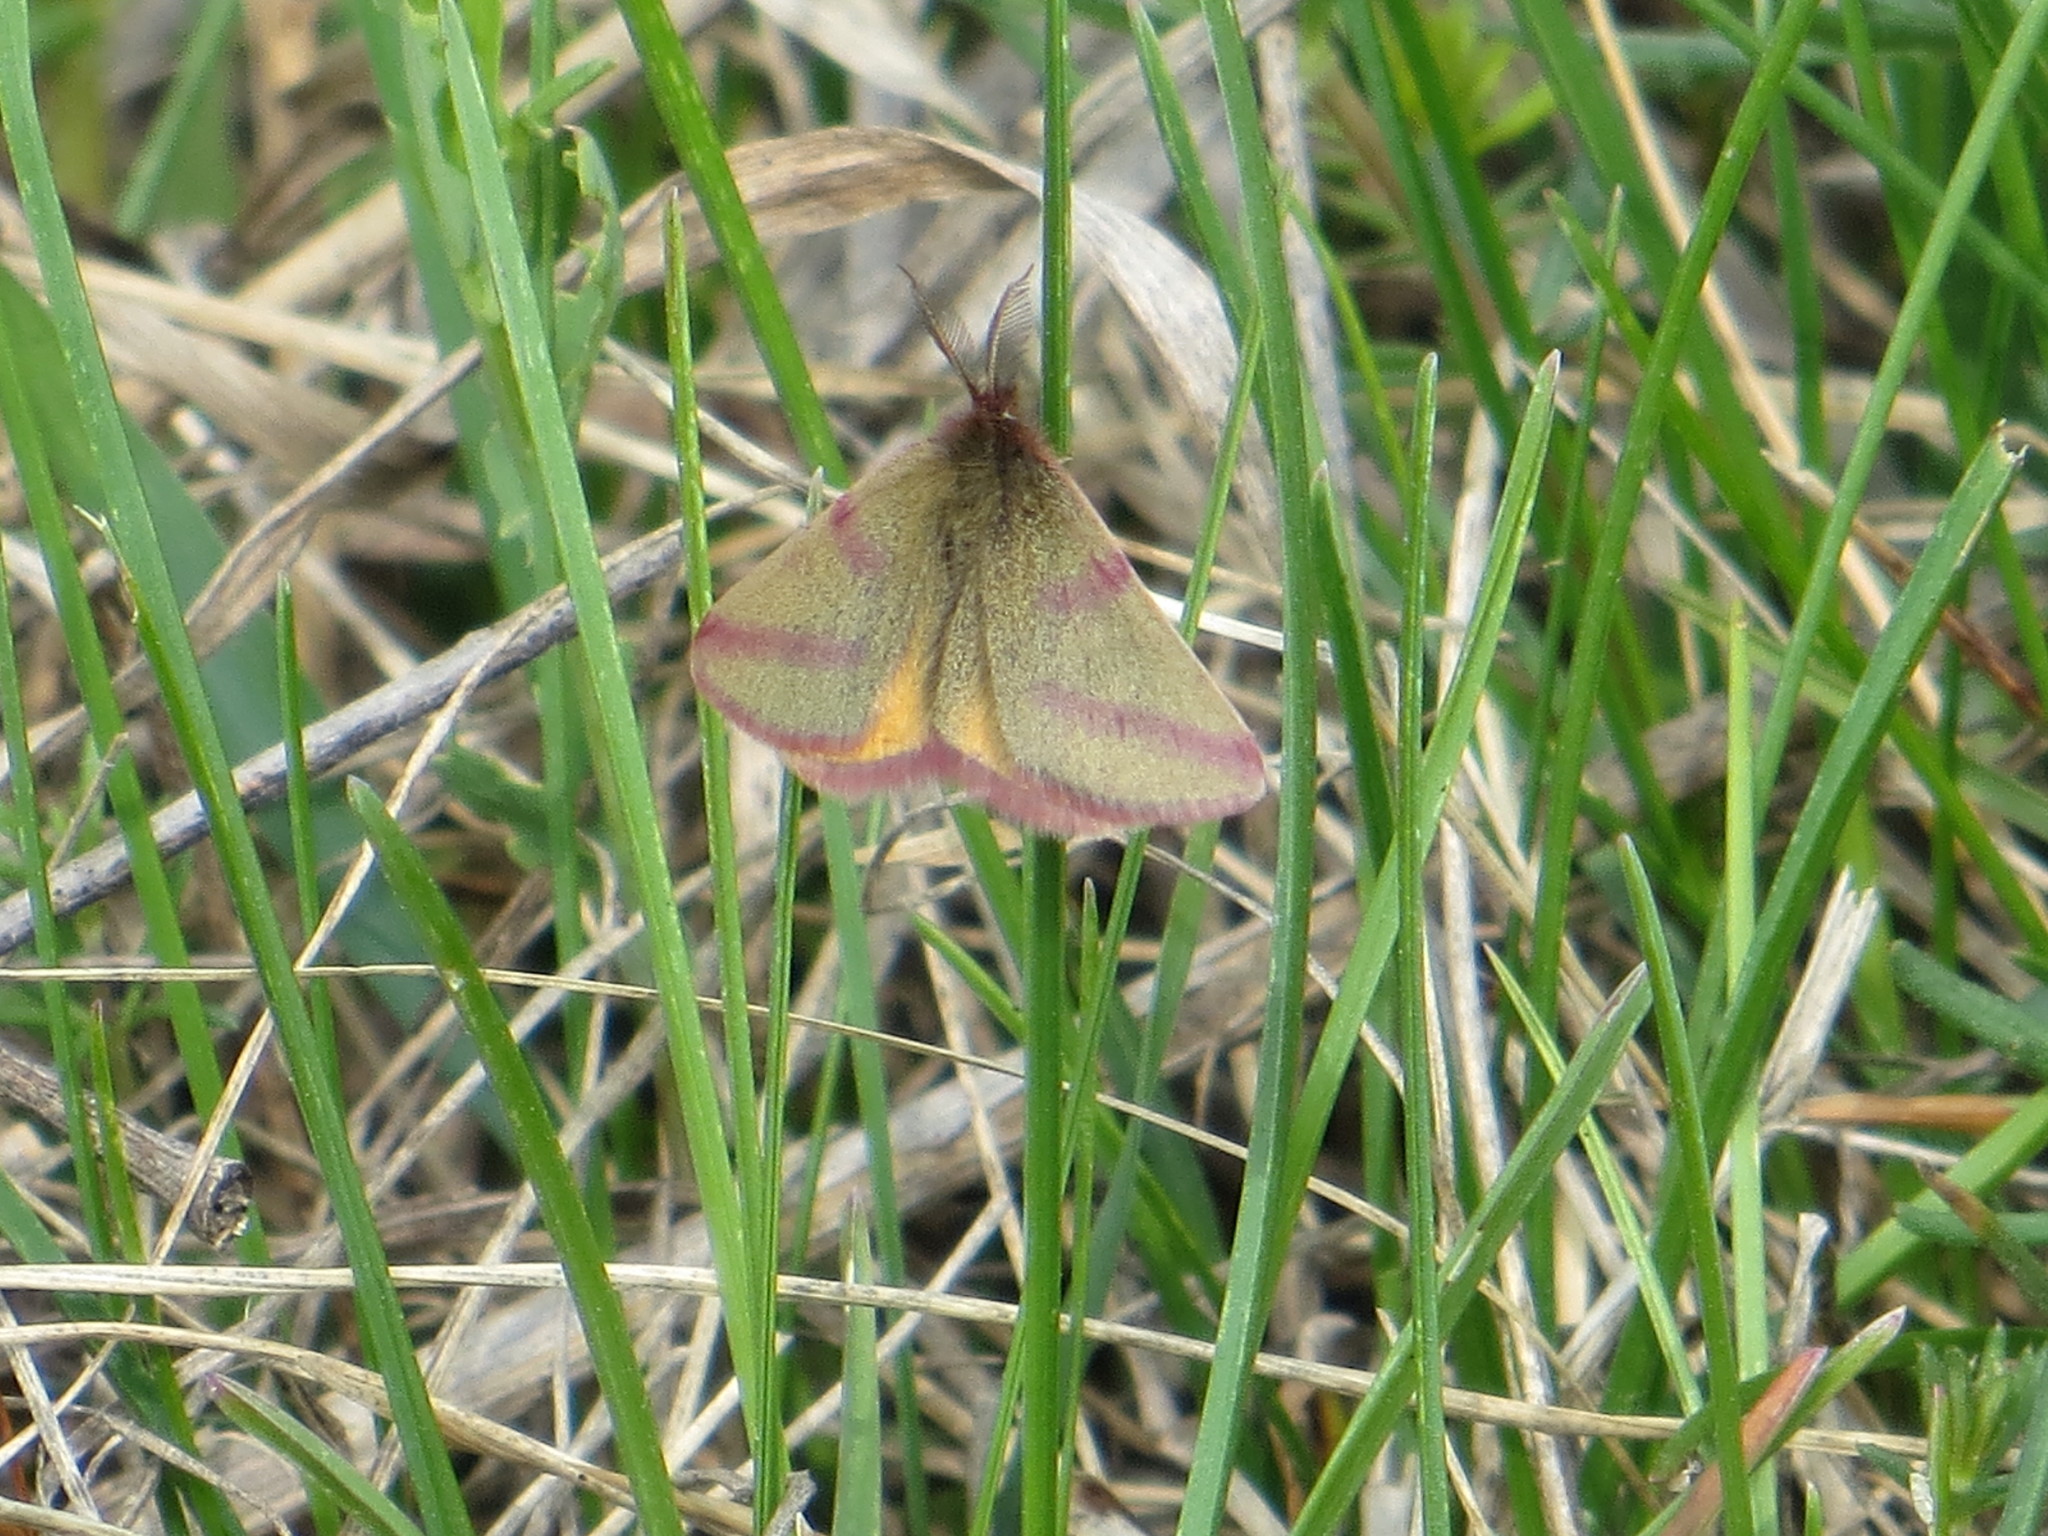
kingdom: Animalia
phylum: Arthropoda
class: Insecta
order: Lepidoptera
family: Geometridae
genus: Lythria
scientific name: Lythria purpuraria
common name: Purple-barred yellow
